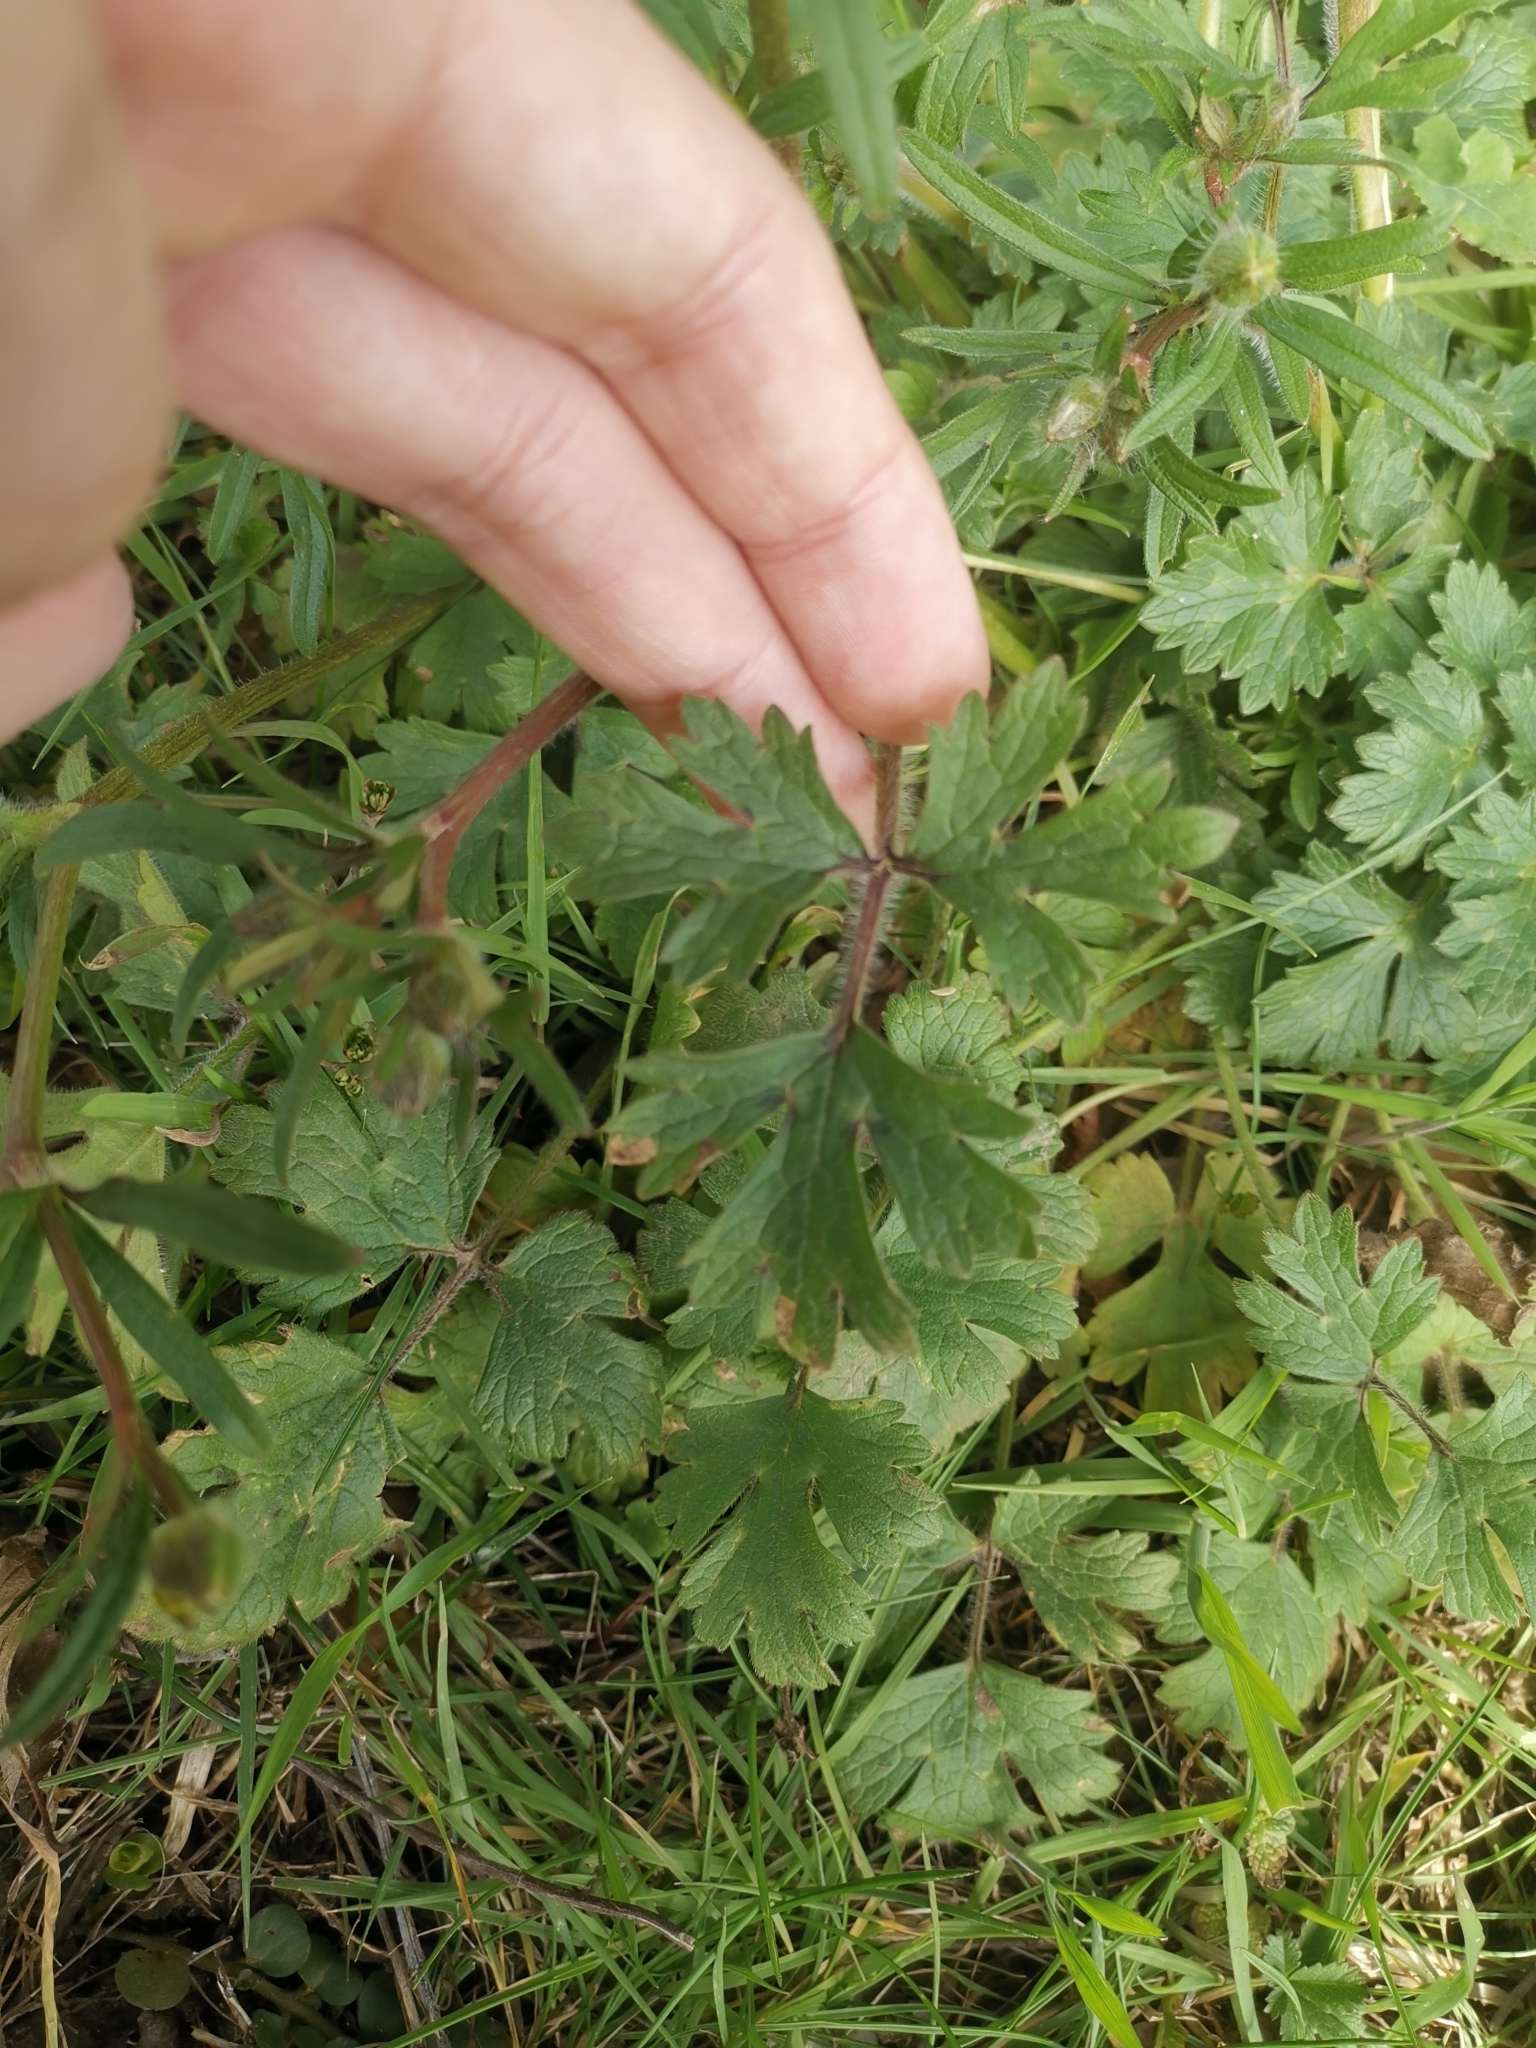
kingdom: Plantae
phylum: Tracheophyta
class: Magnoliopsida
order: Ranunculales
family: Ranunculaceae
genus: Ranunculus
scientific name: Ranunculus bulbosus
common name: Bulbous buttercup
